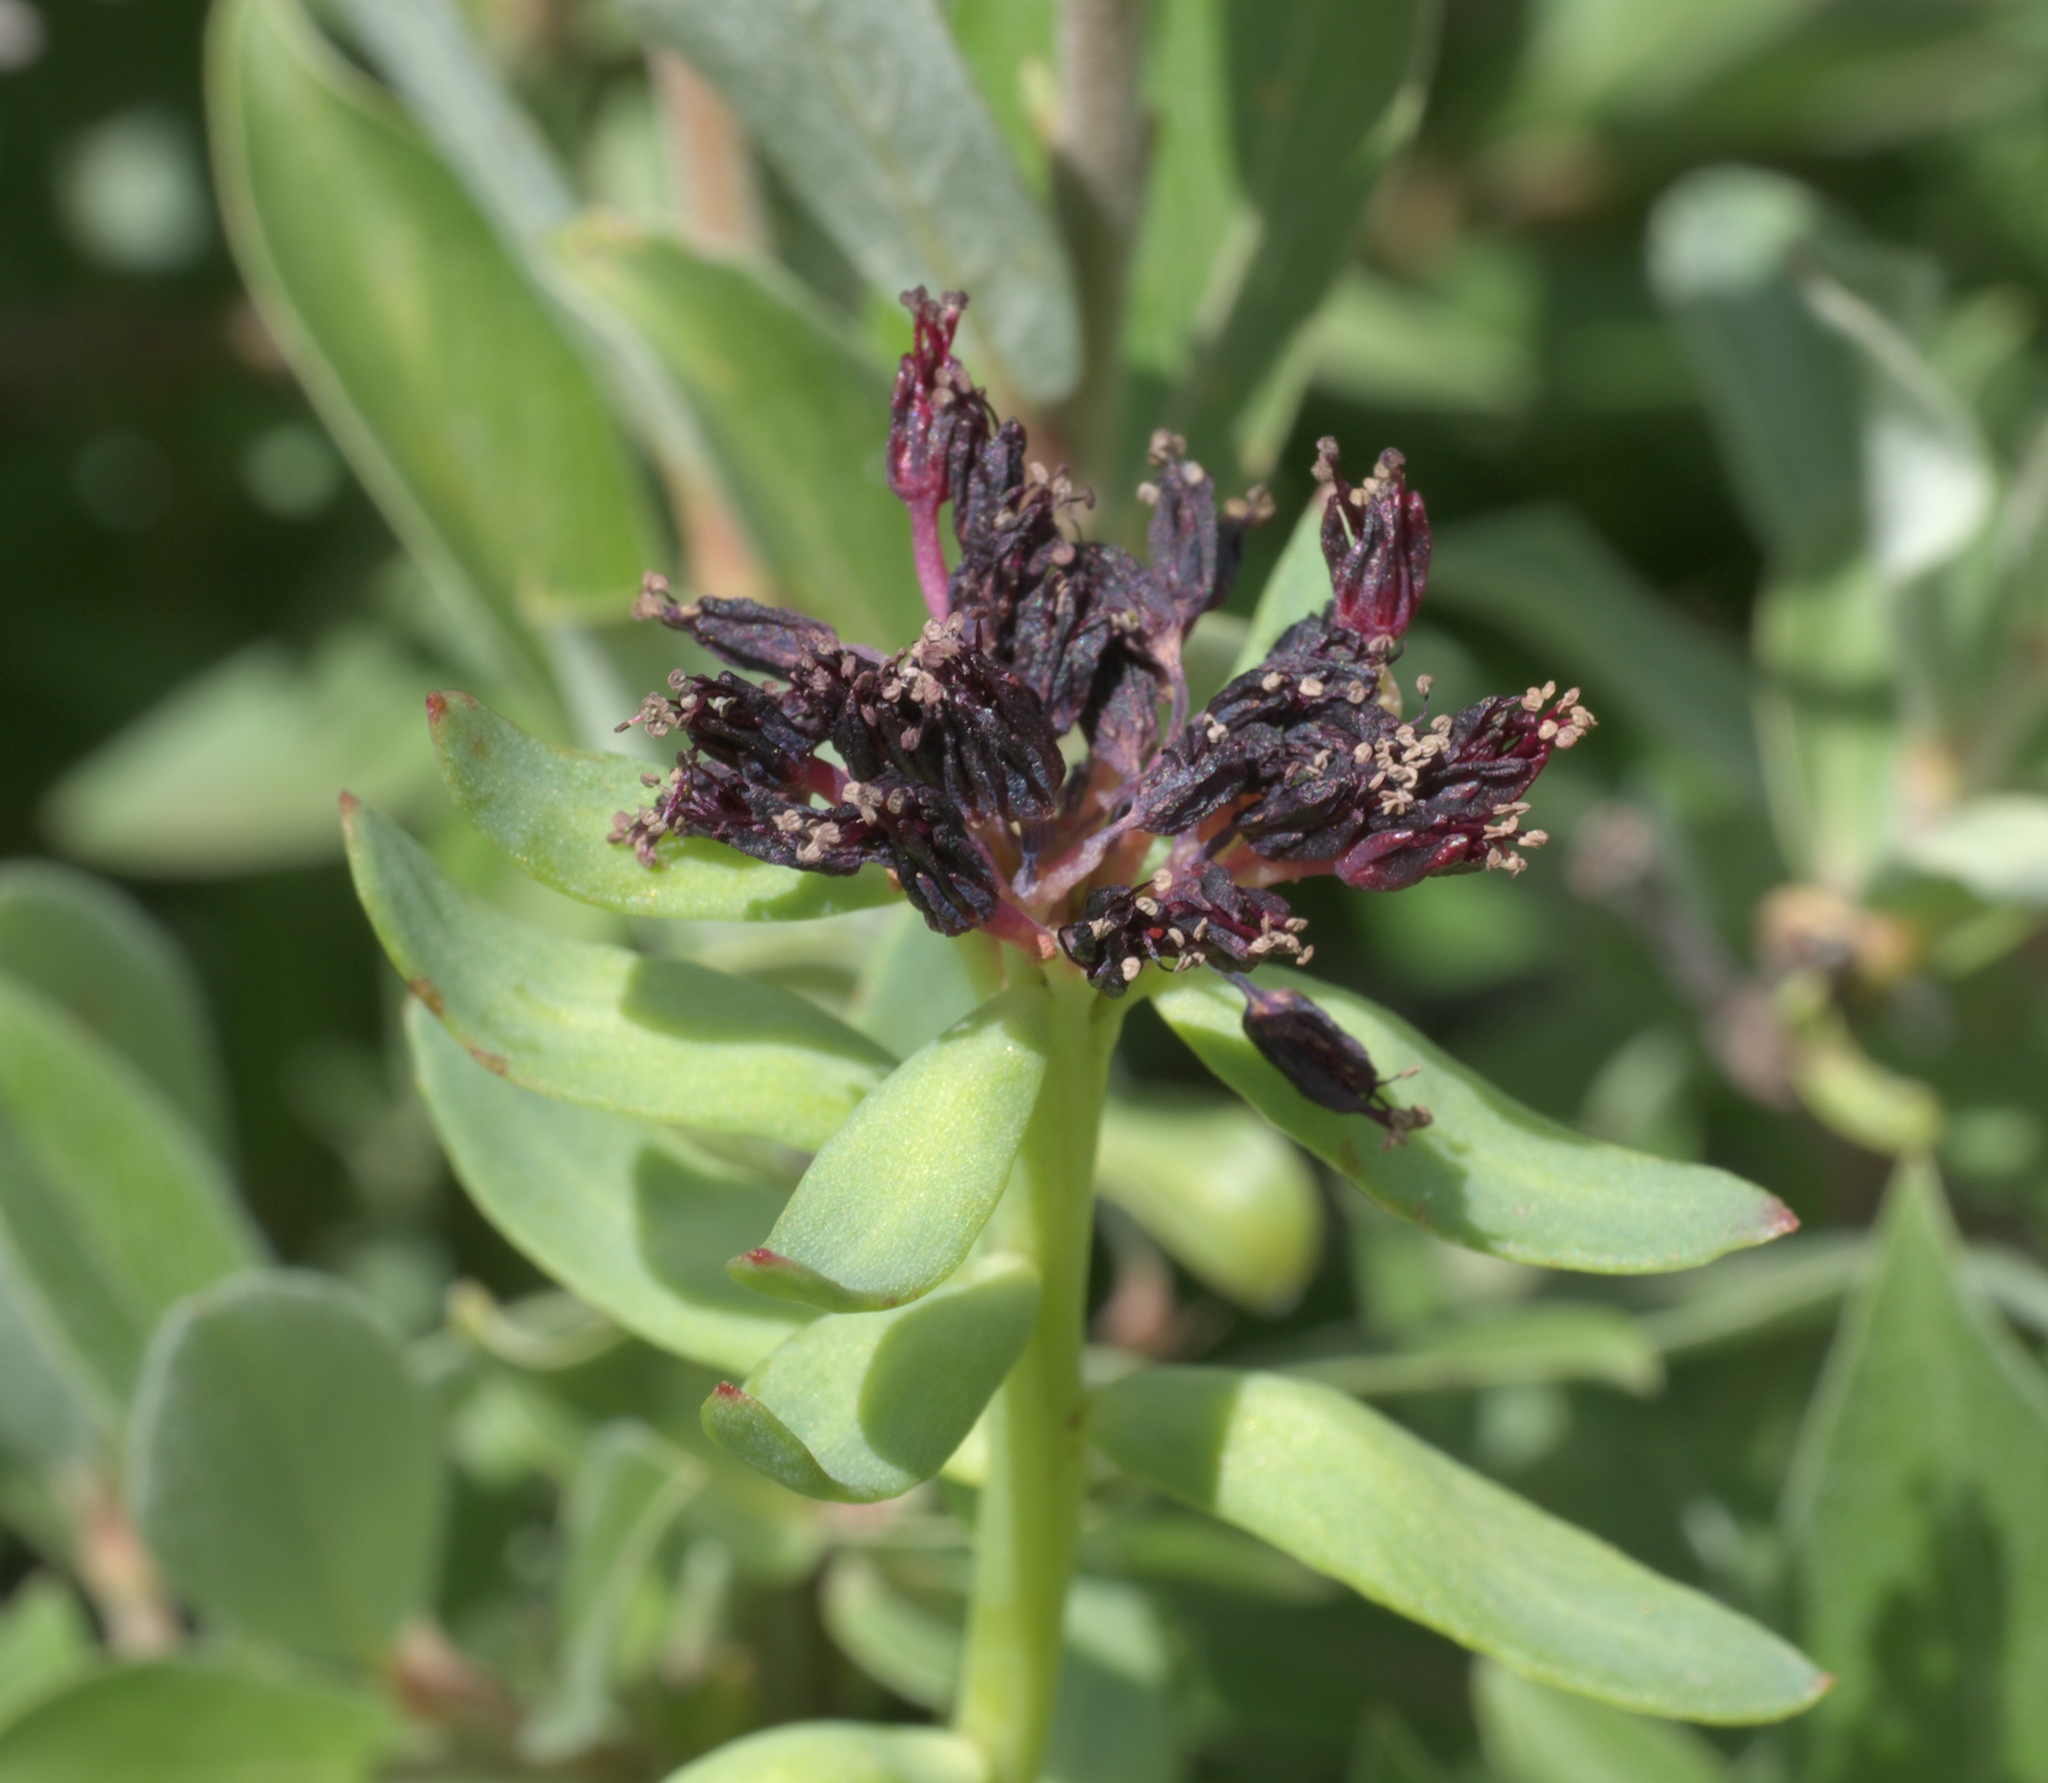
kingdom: Plantae
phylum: Tracheophyta
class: Magnoliopsida
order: Saxifragales
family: Crassulaceae
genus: Rhodiola
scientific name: Rhodiola integrifolia
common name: Western roseroot
